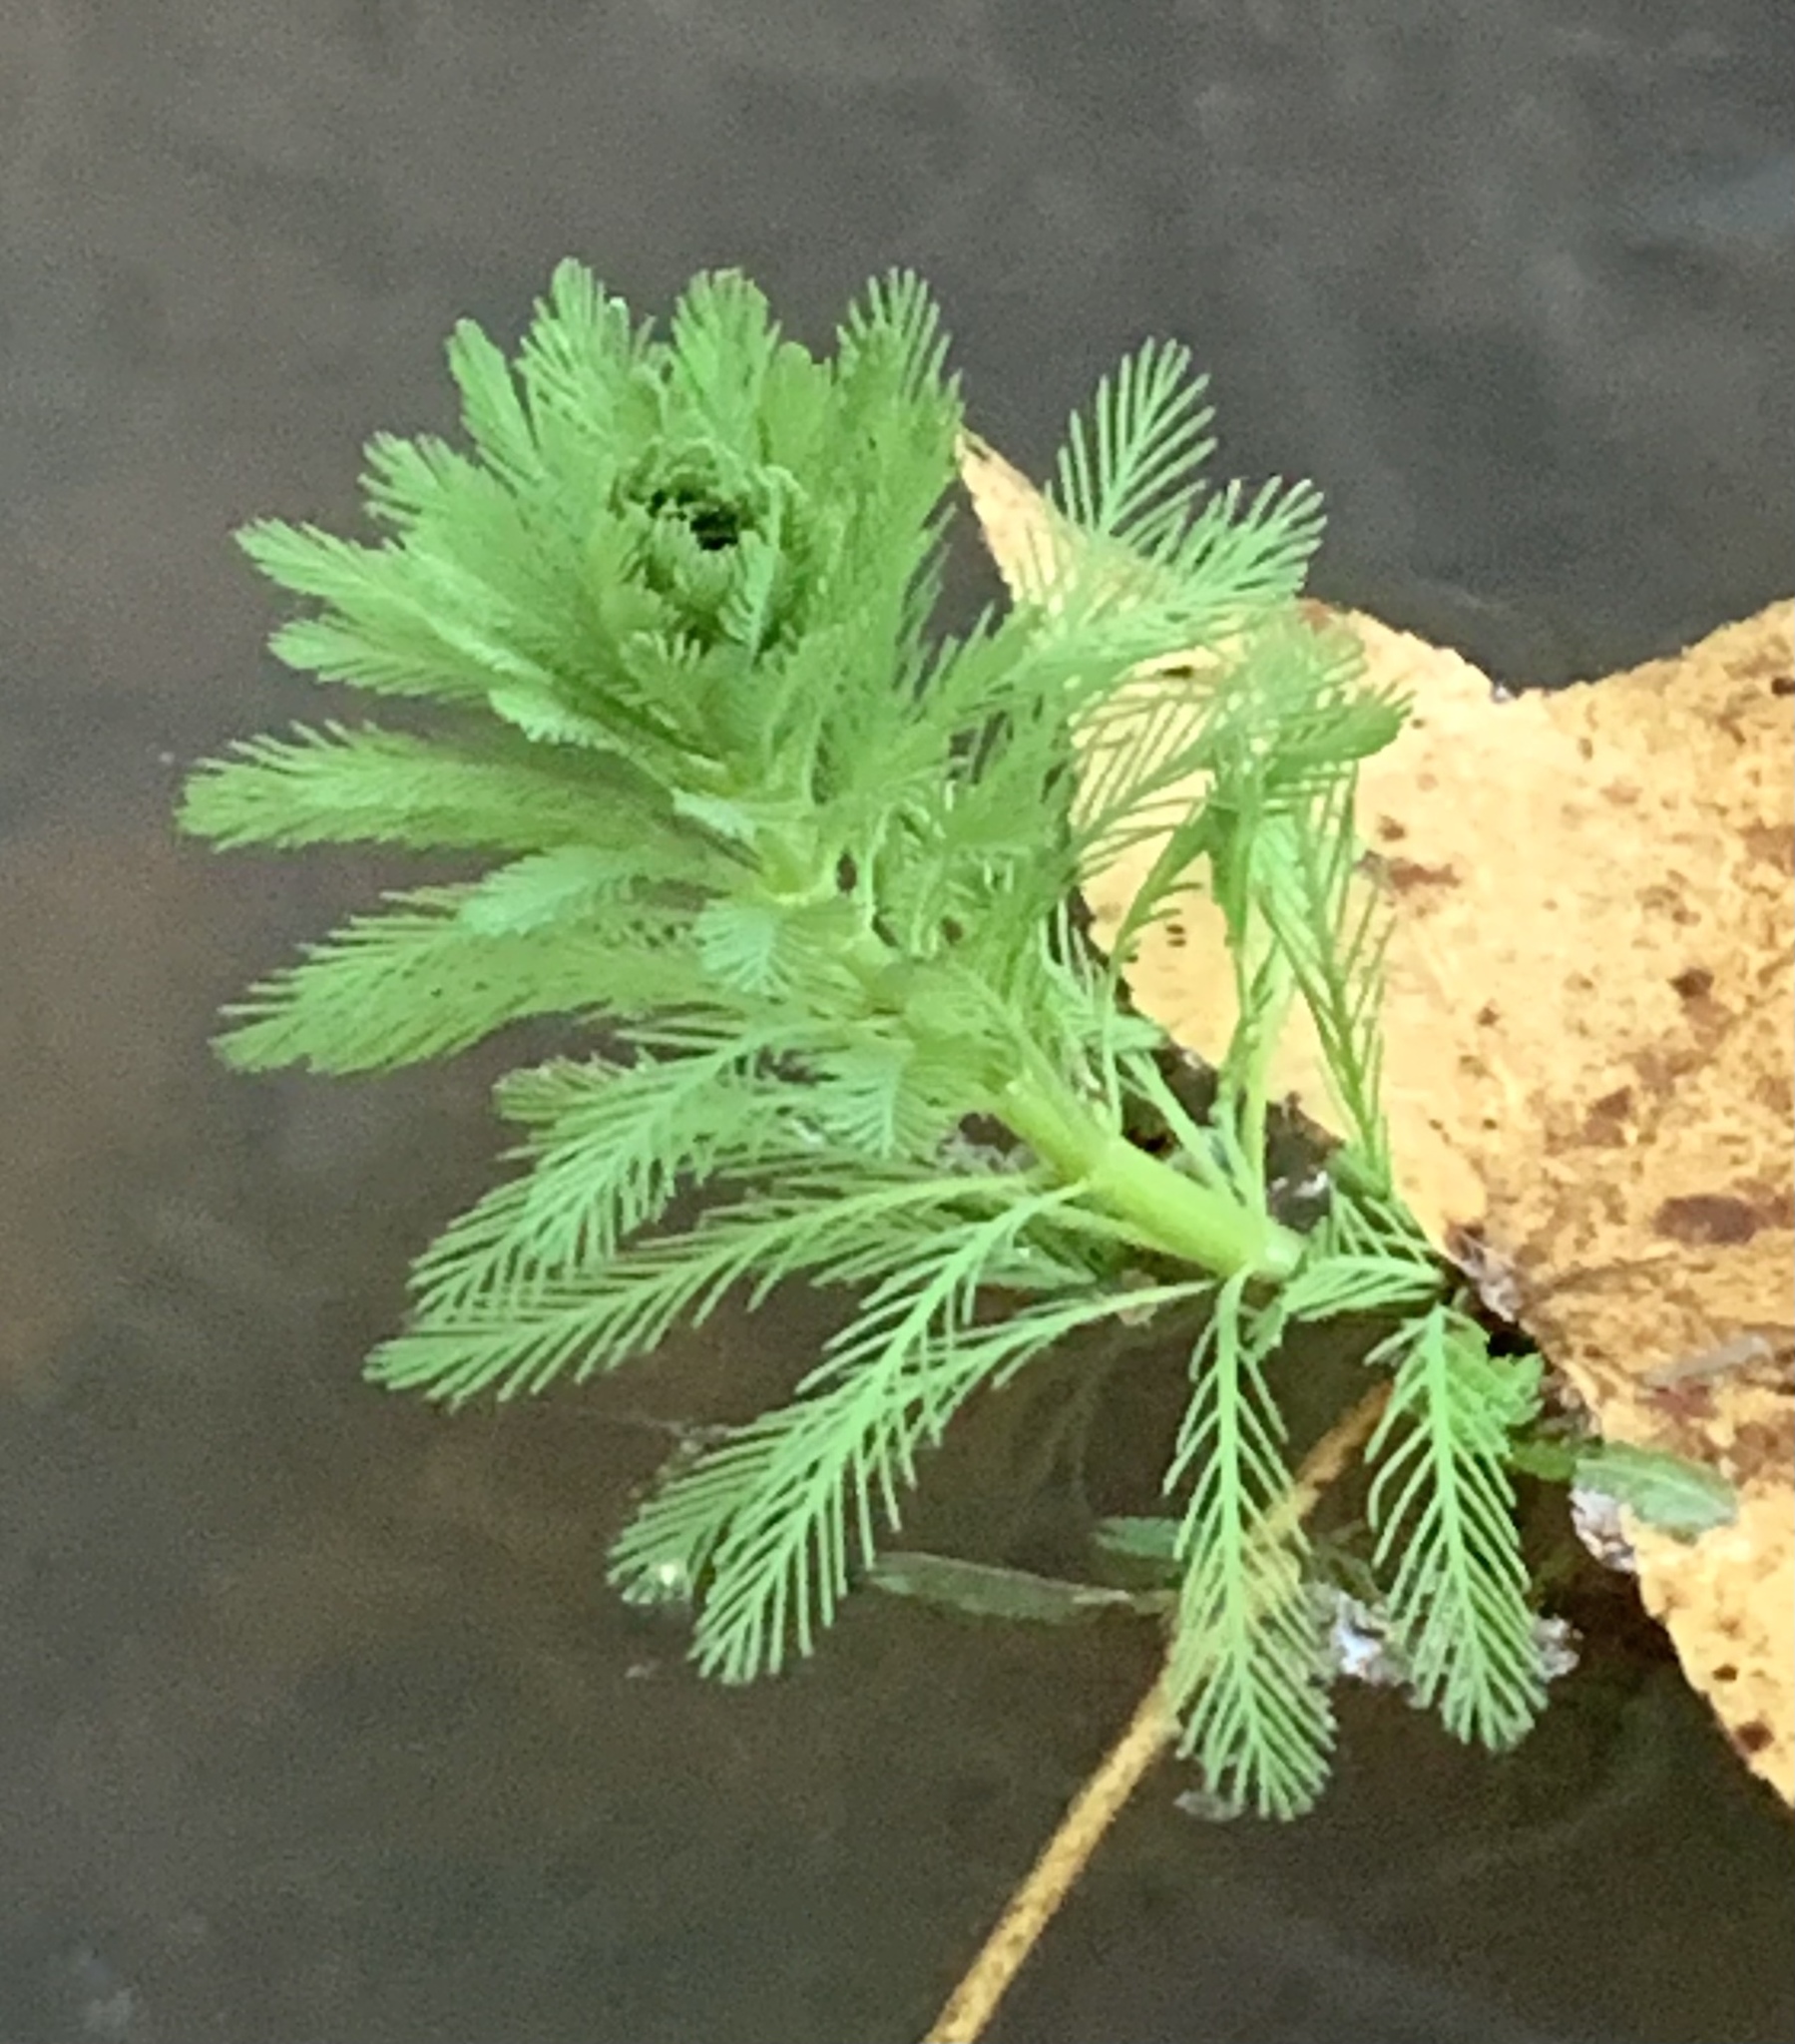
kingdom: Plantae
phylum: Tracheophyta
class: Magnoliopsida
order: Saxifragales
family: Haloragaceae
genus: Myriophyllum
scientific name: Myriophyllum aquaticum
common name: Parrot's feather
